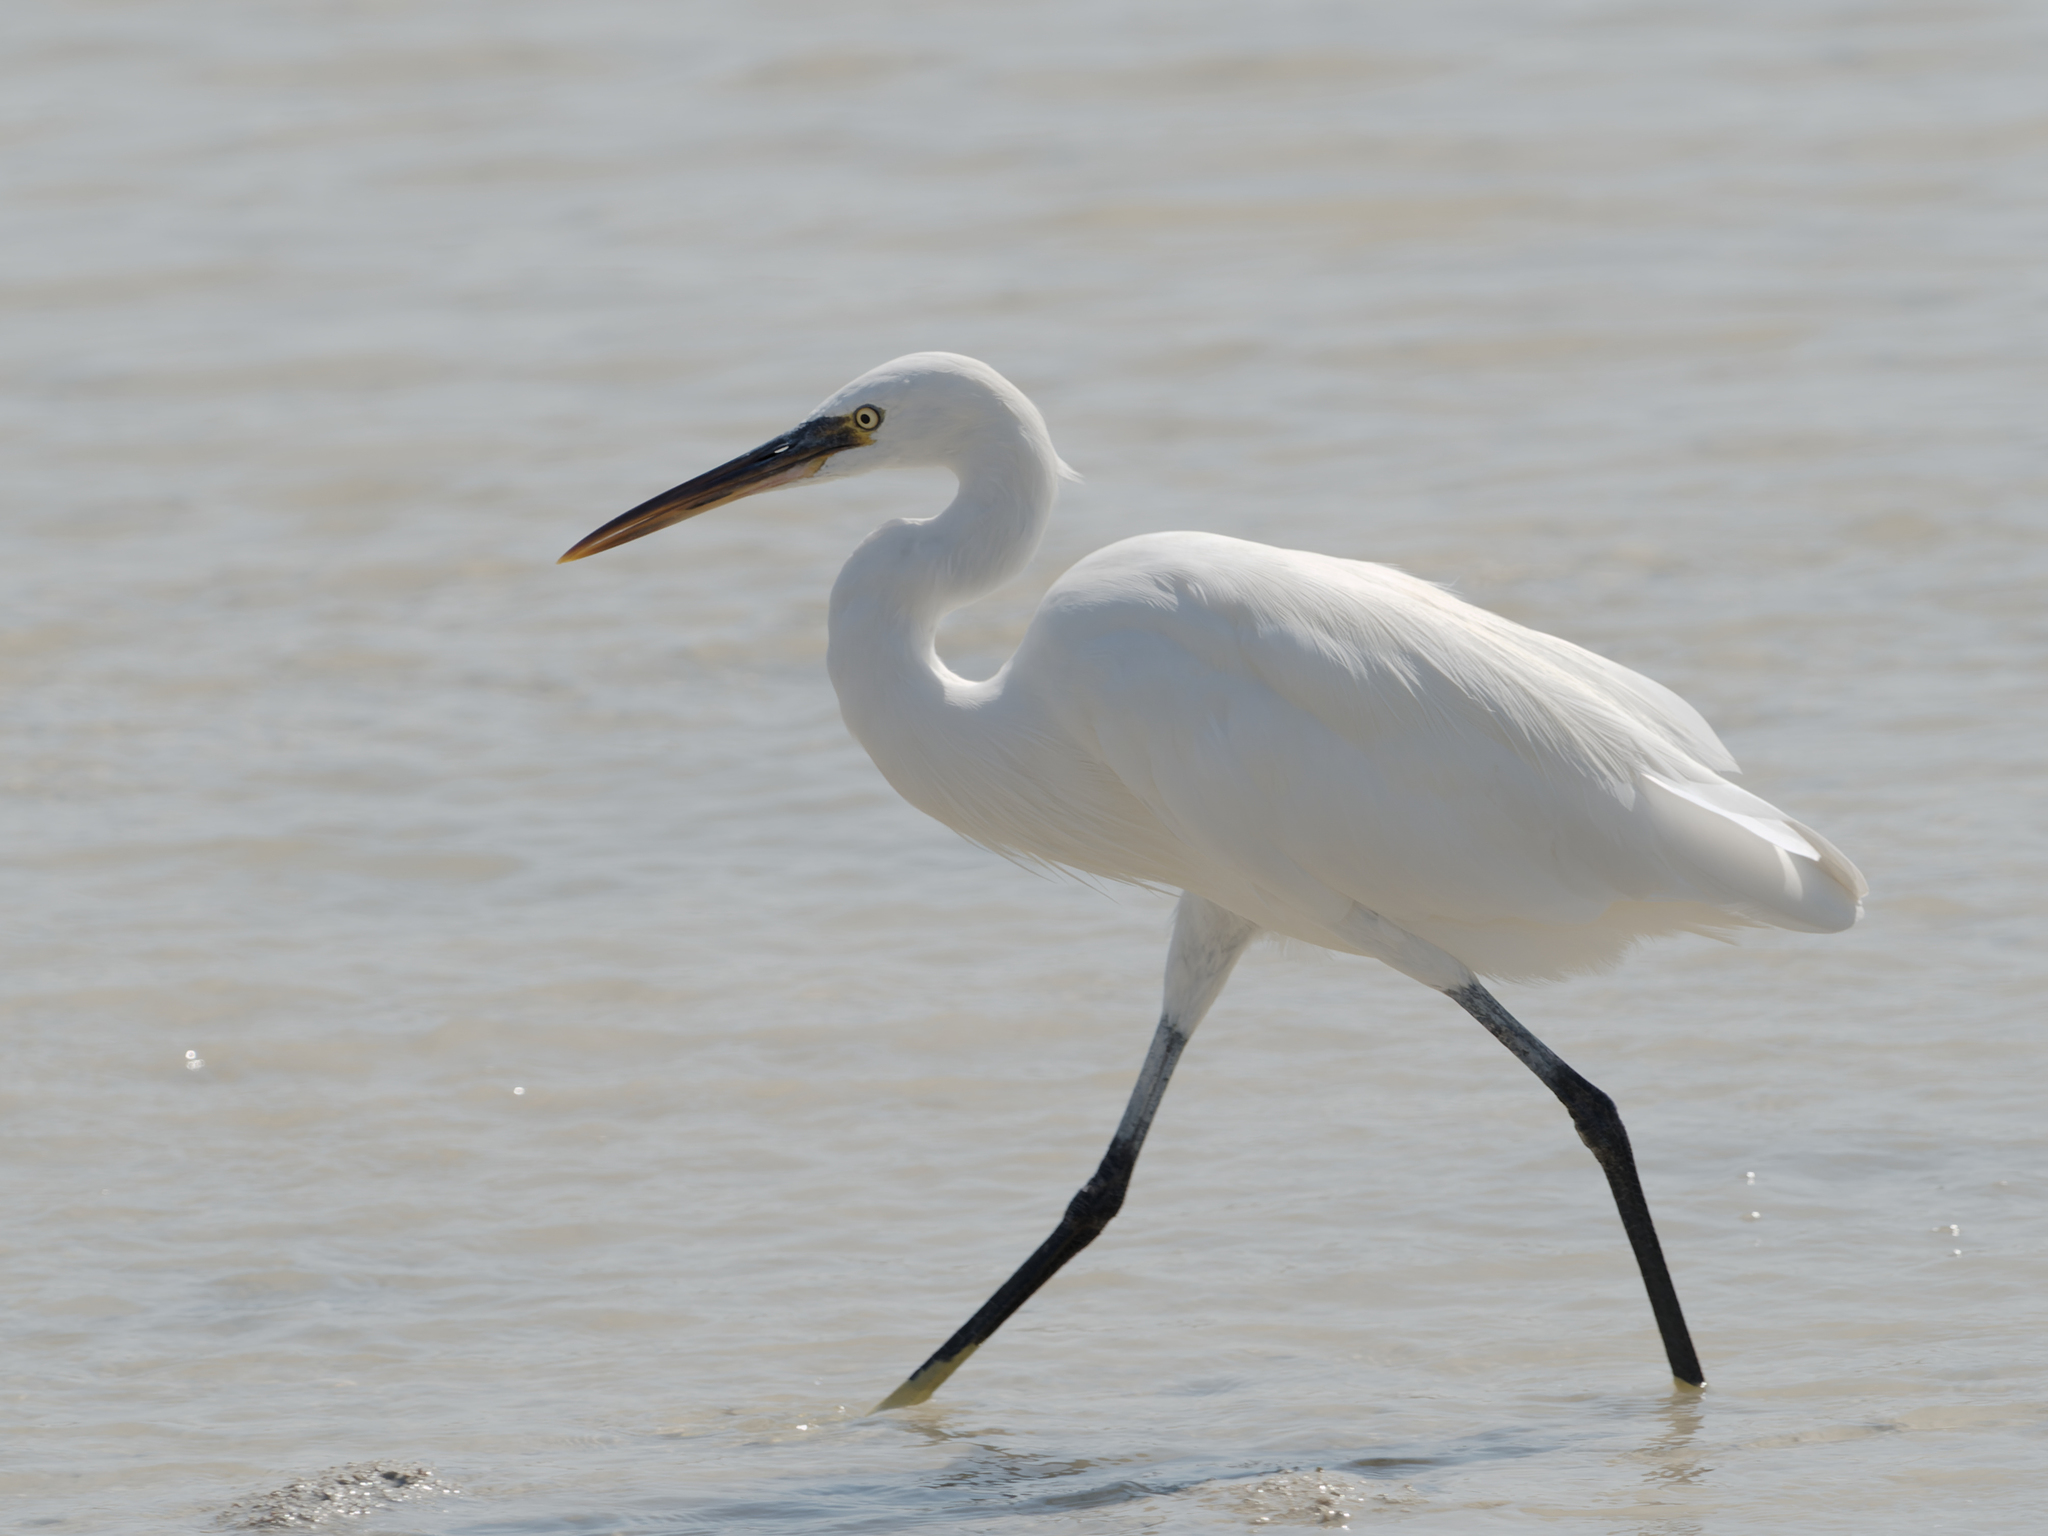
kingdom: Animalia
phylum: Chordata
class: Aves
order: Pelecaniformes
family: Ardeidae
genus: Egretta
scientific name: Egretta gularis
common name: Western reef-heron
